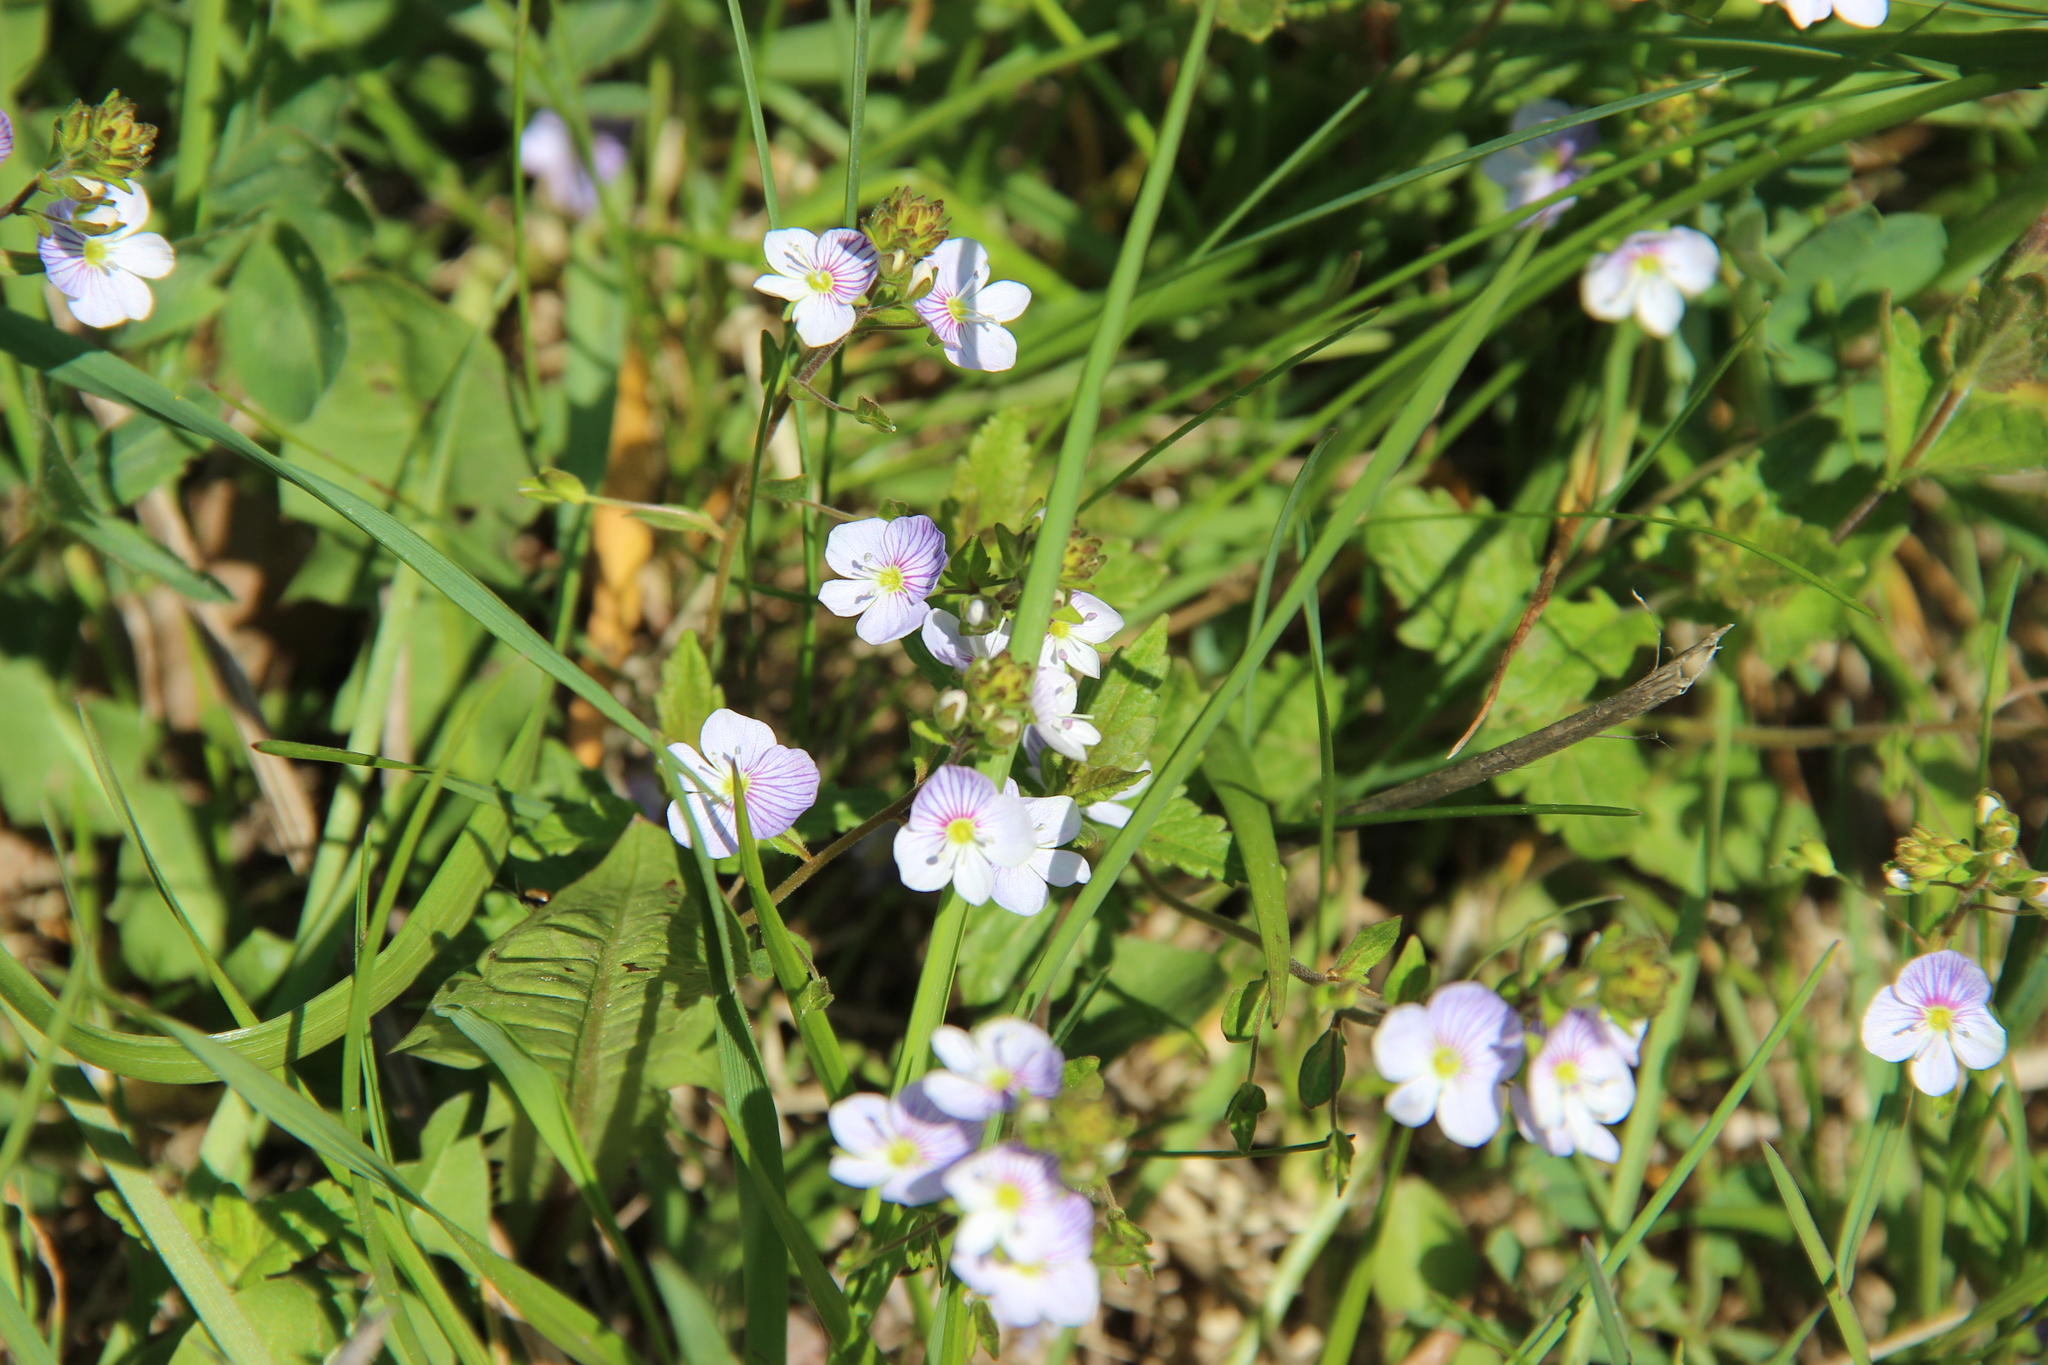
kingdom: Plantae
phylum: Tracheophyta
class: Magnoliopsida
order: Lamiales
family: Plantaginaceae
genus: Veronica
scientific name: Veronica peduncularis
